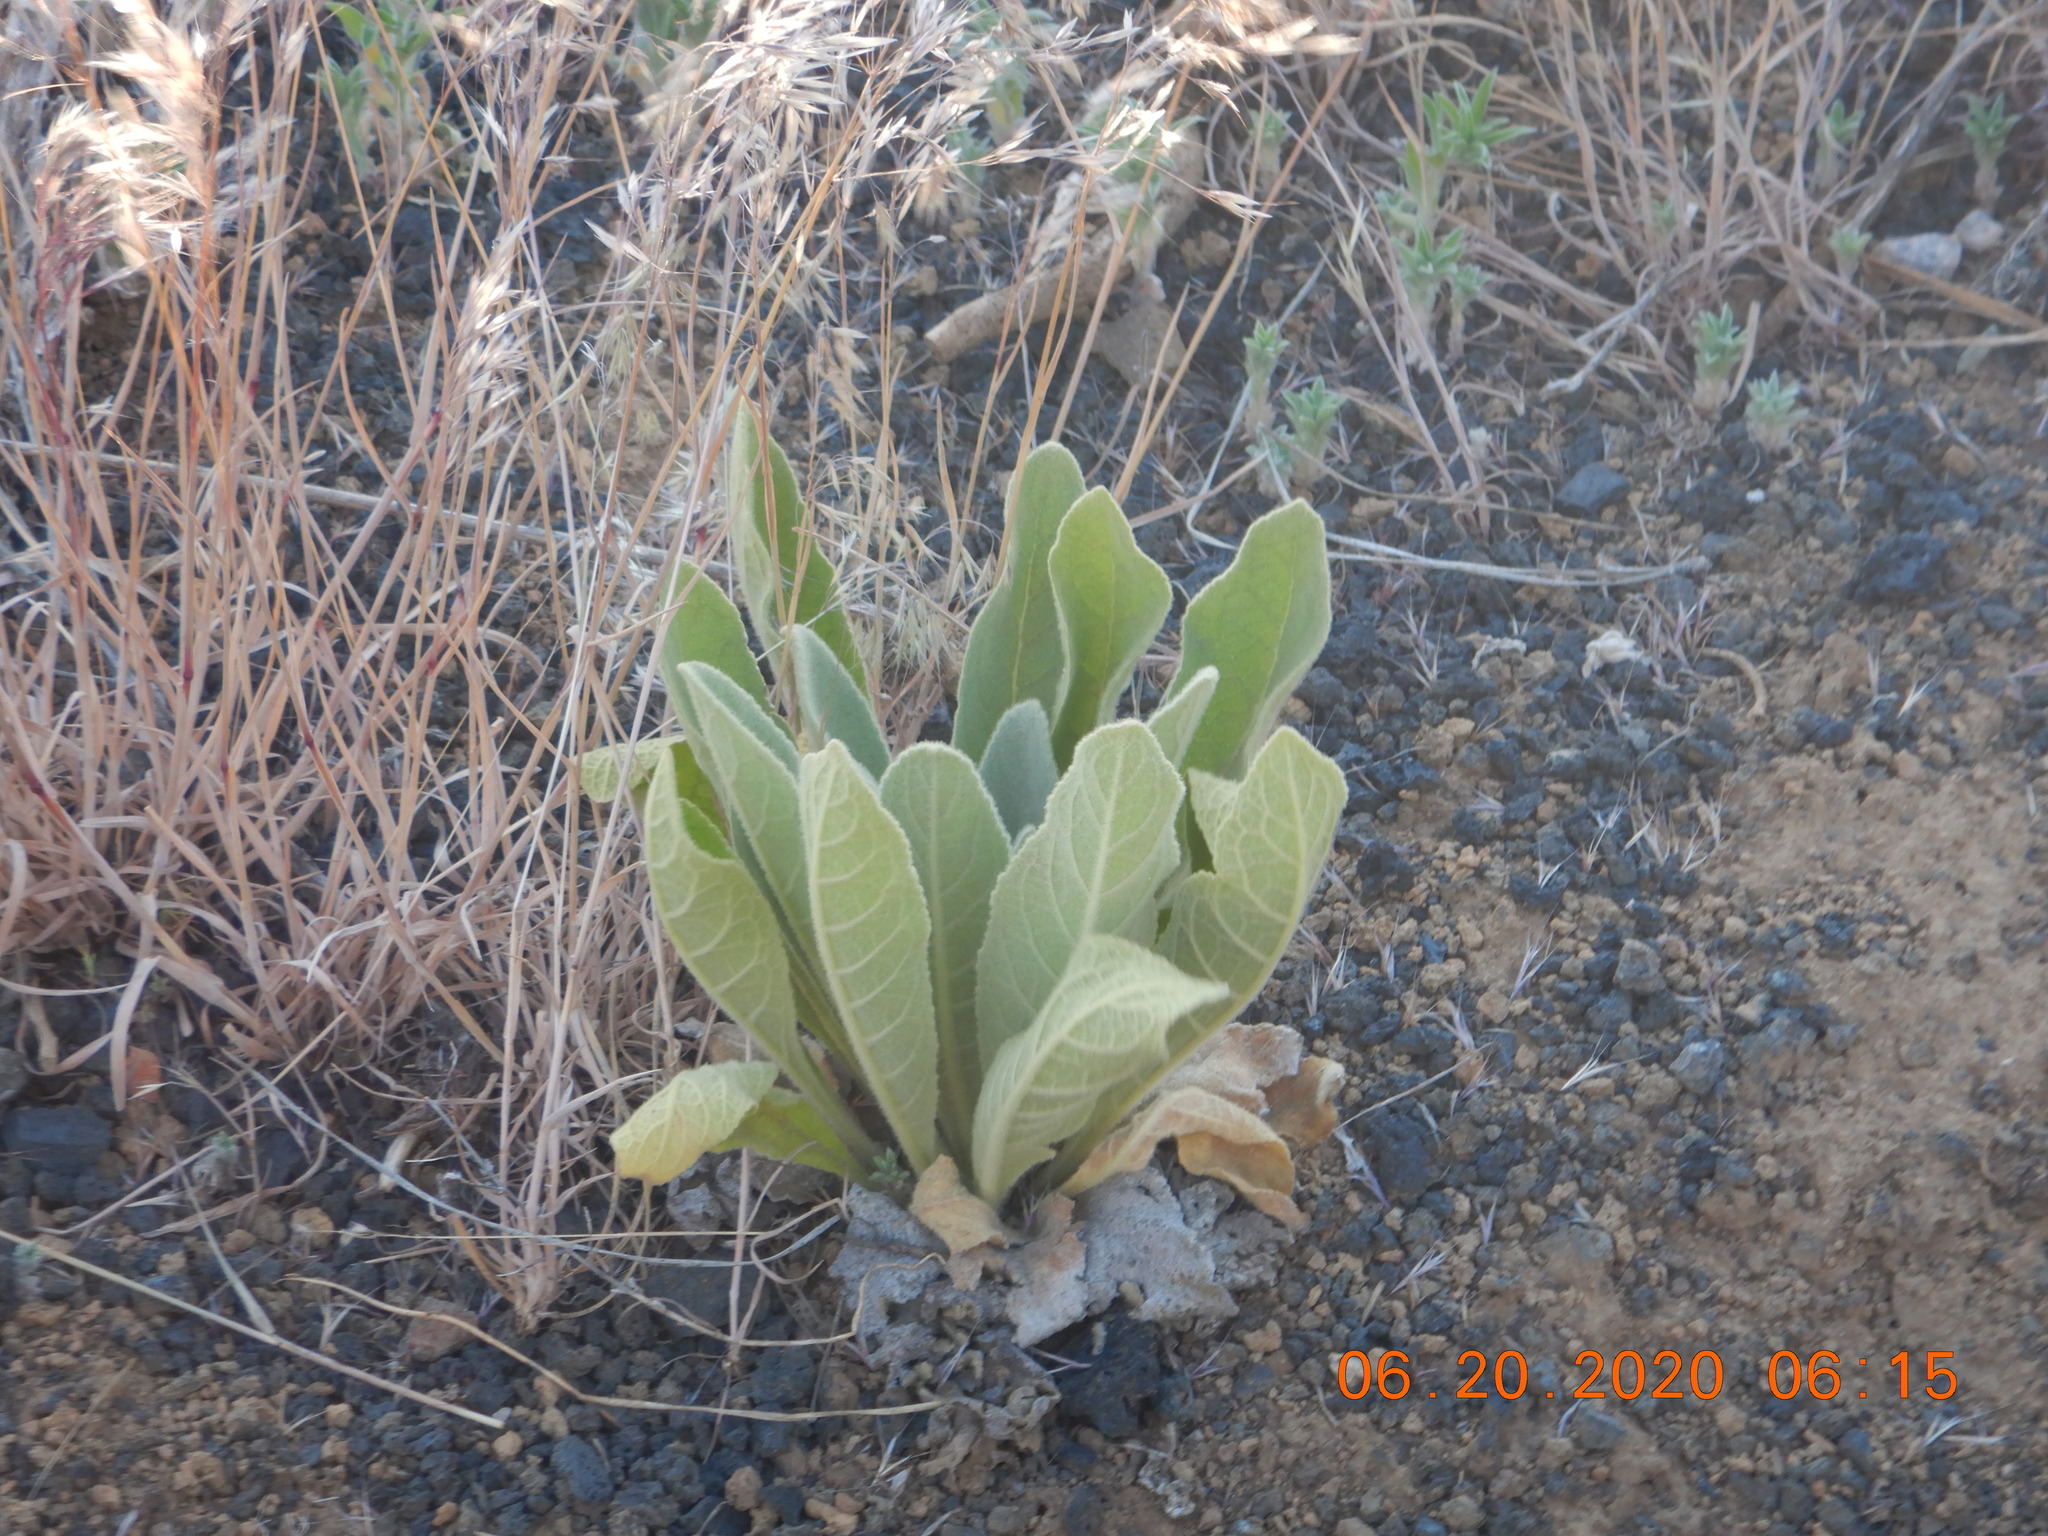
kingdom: Plantae
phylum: Tracheophyta
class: Magnoliopsida
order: Lamiales
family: Scrophulariaceae
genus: Verbascum
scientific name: Verbascum thapsus
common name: Common mullein
